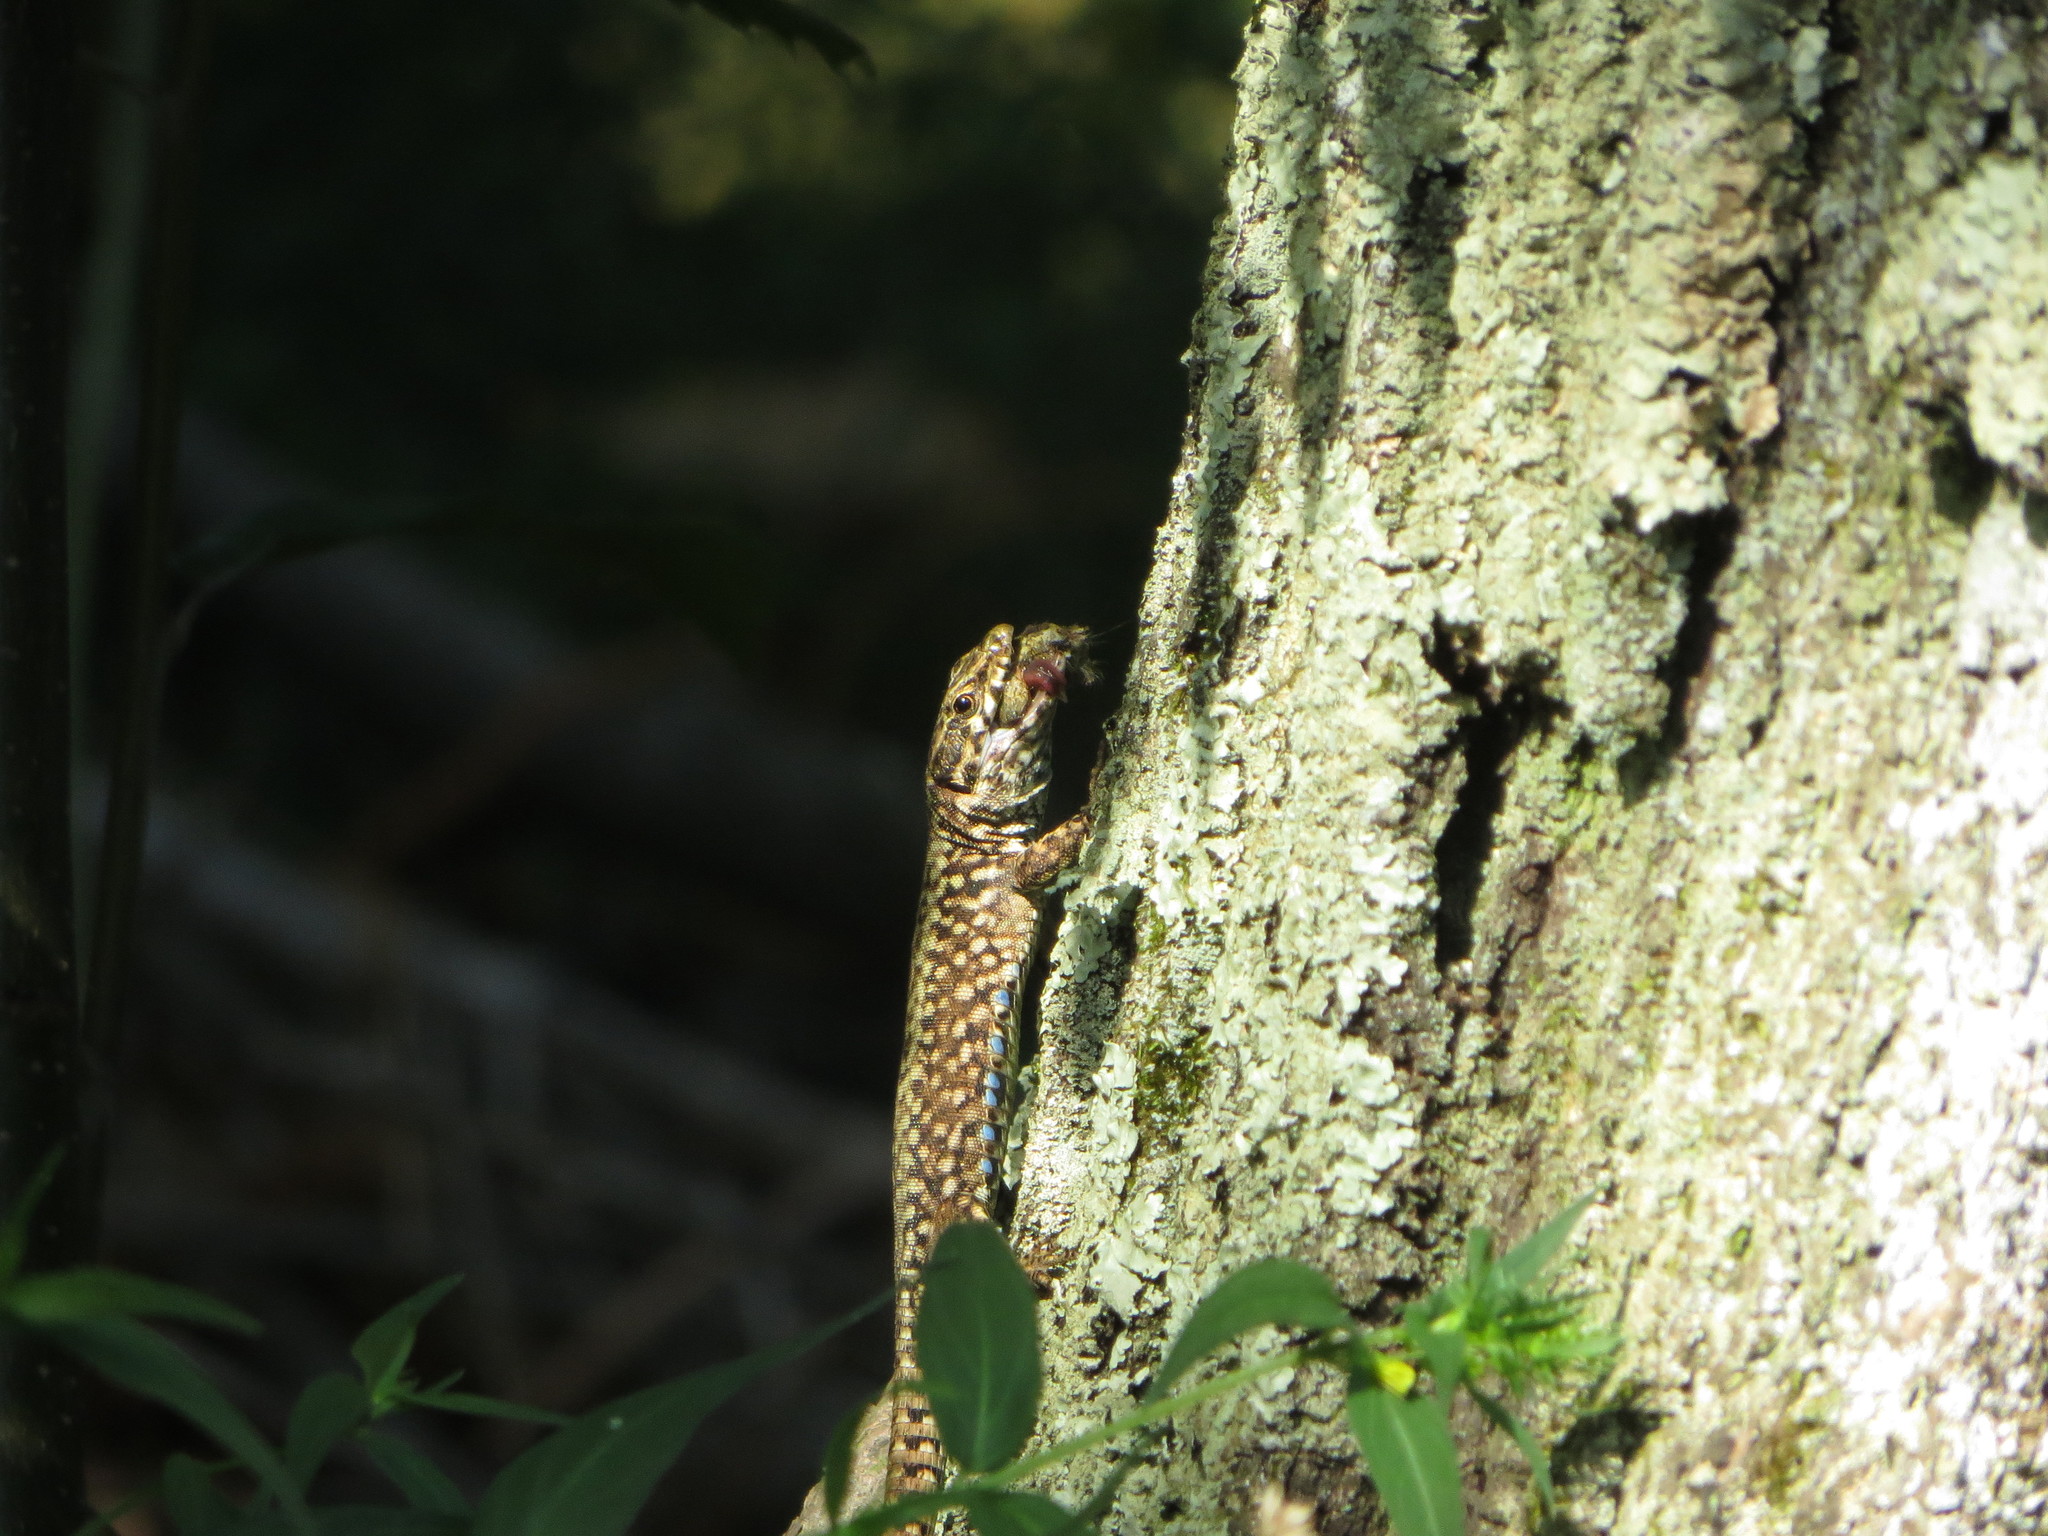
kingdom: Animalia
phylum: Chordata
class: Squamata
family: Lacertidae
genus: Podarcis
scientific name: Podarcis muralis
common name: Common wall lizard
